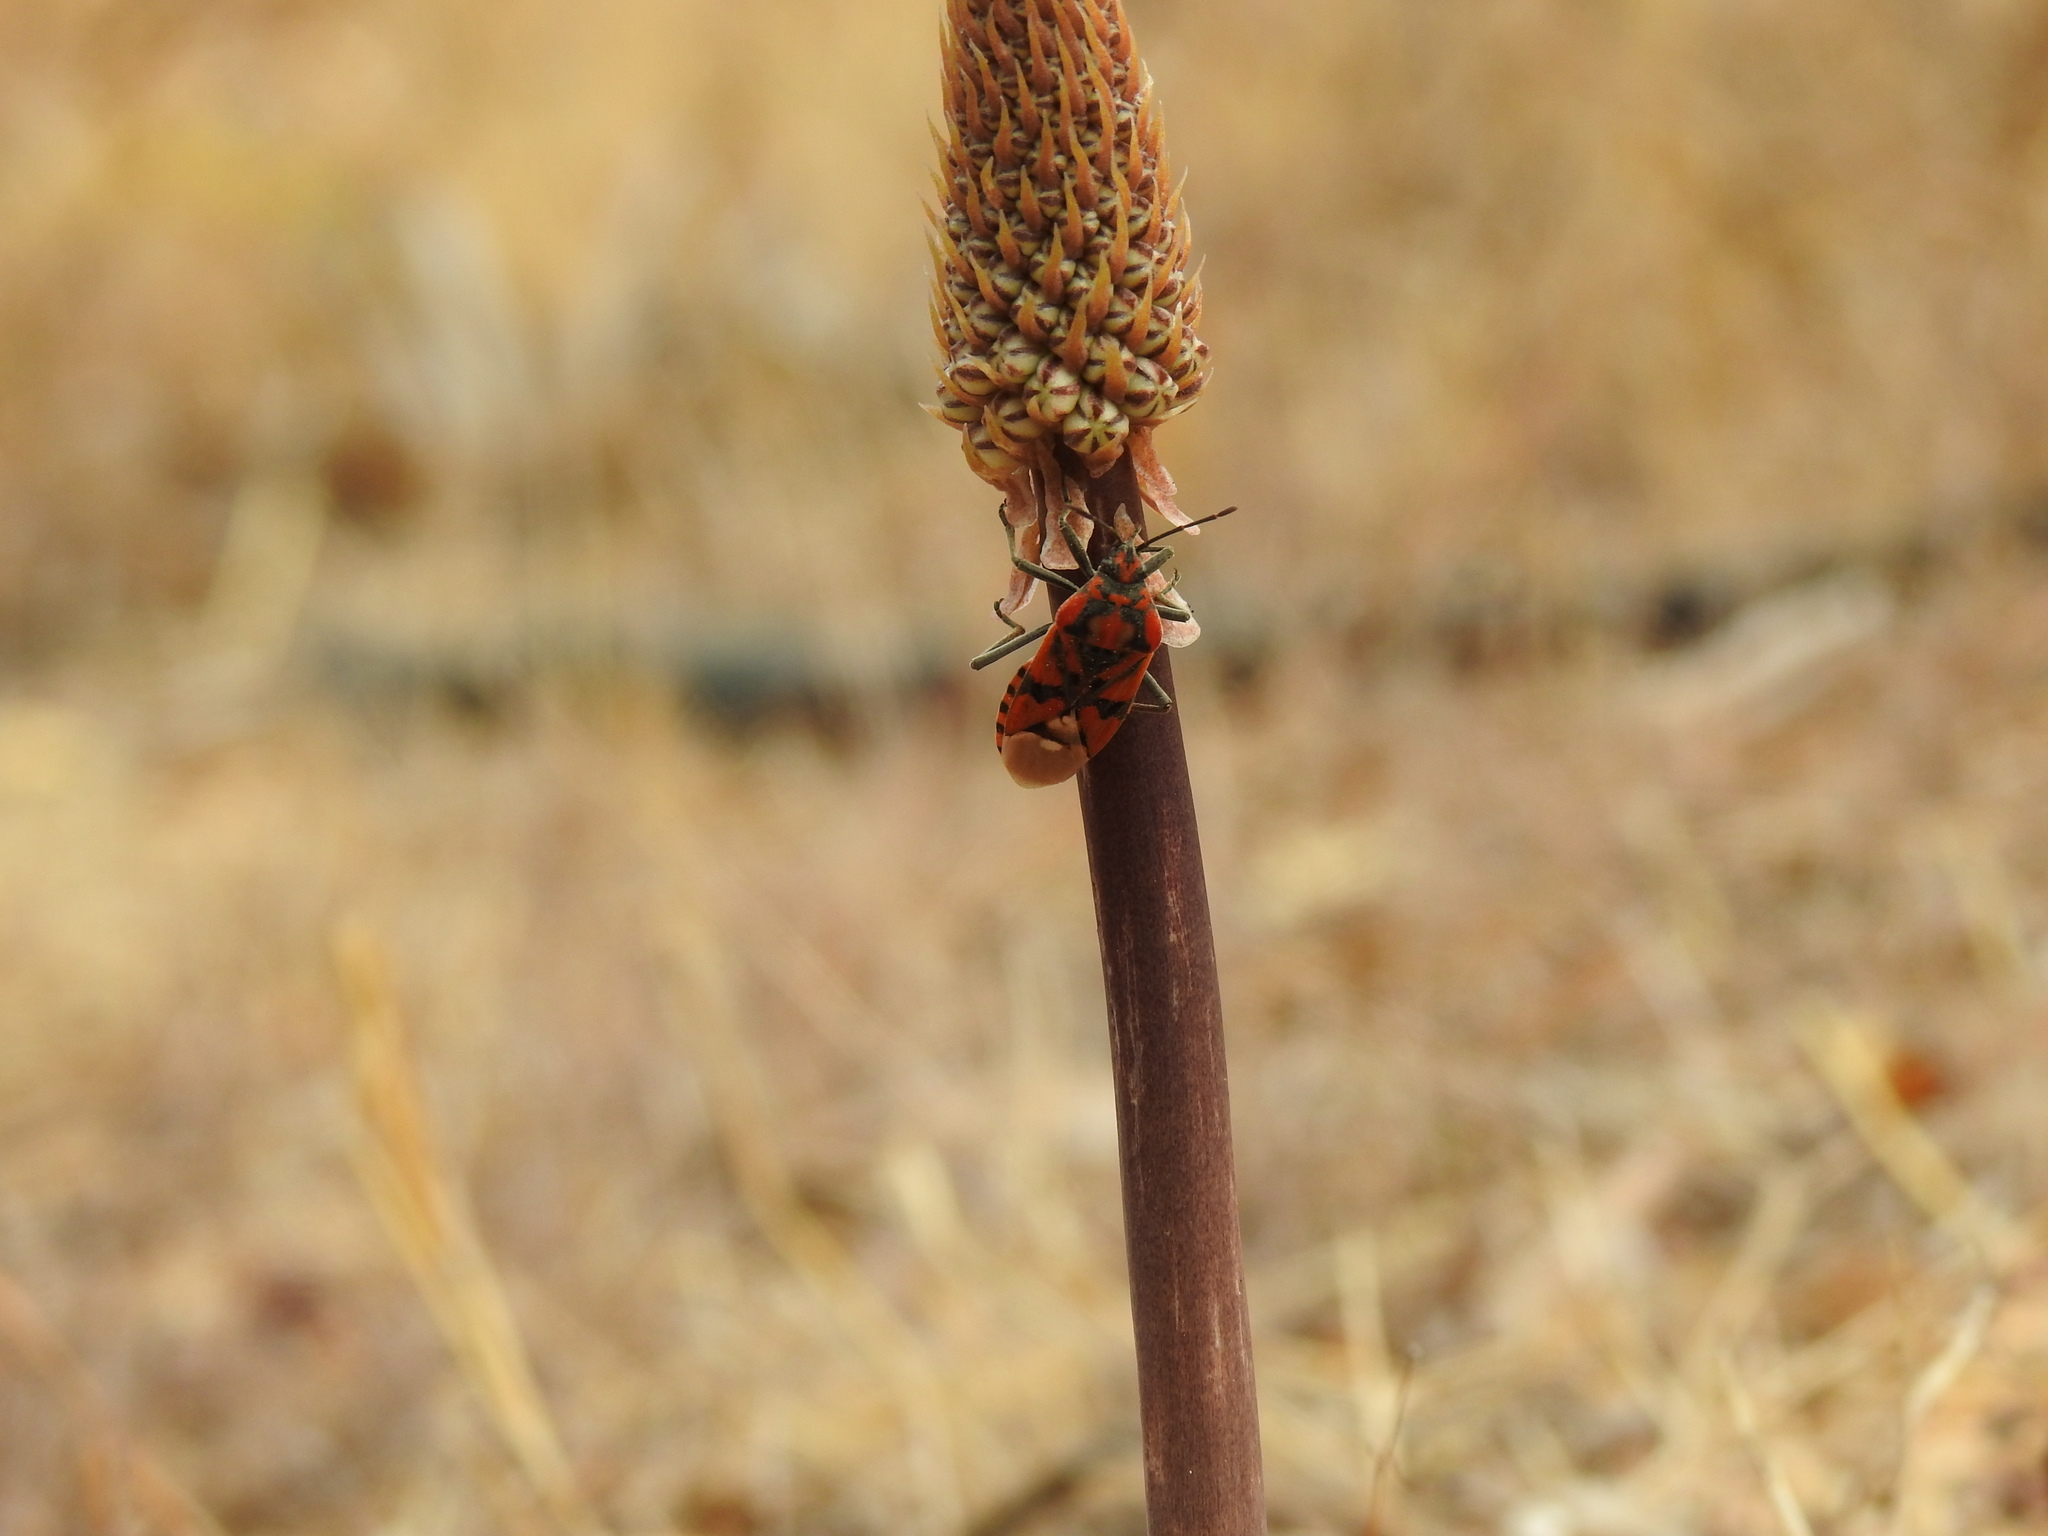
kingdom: Animalia
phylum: Arthropoda
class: Insecta
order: Hemiptera
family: Lygaeidae
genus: Spilostethus
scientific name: Spilostethus pandurus
